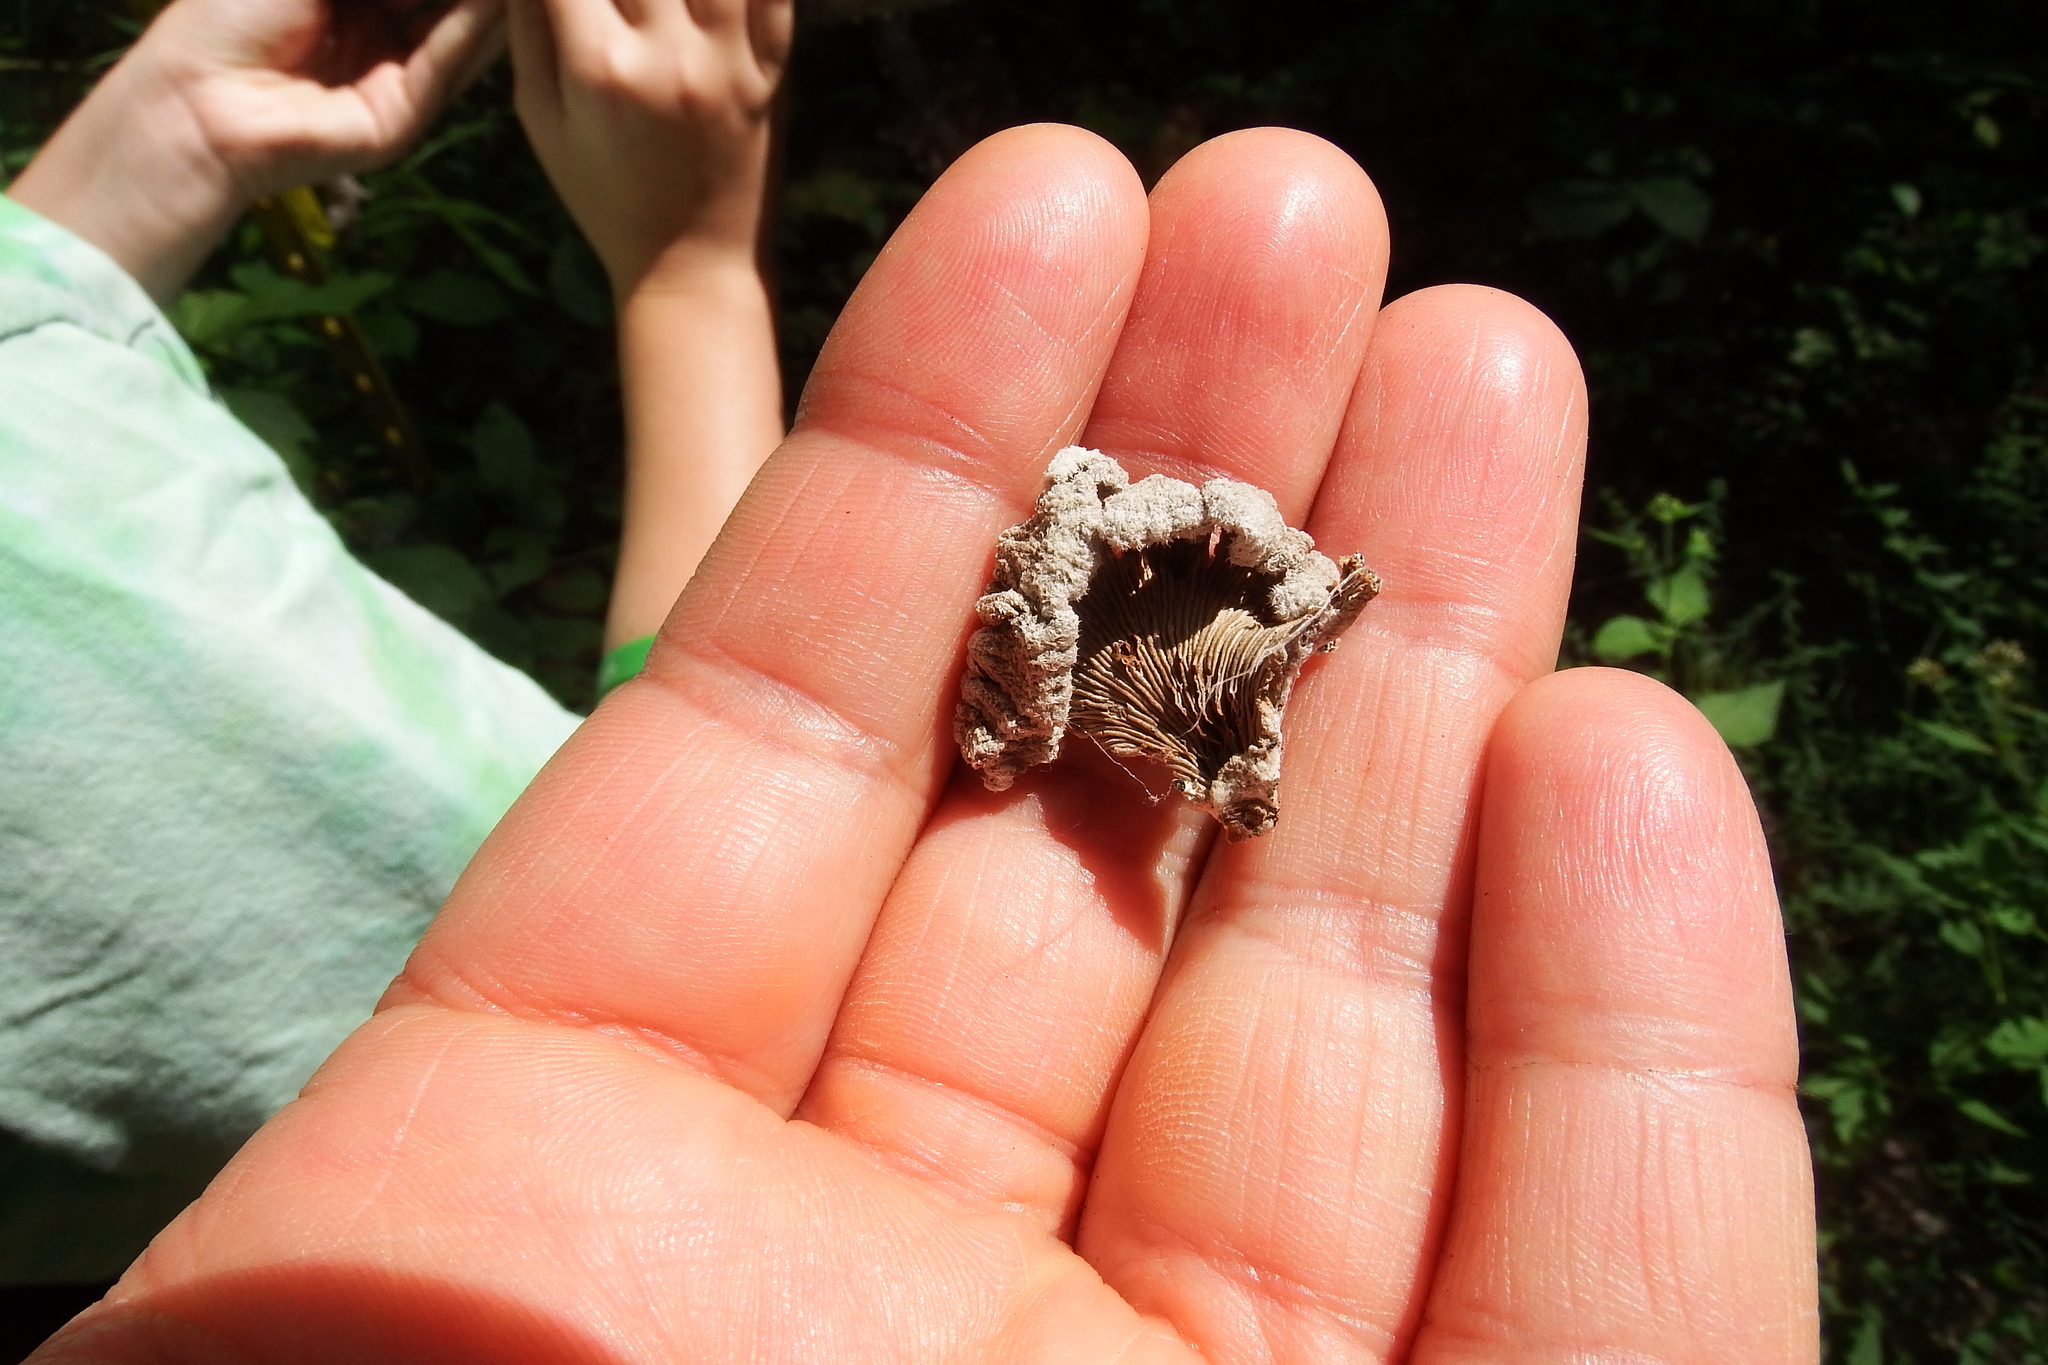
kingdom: Fungi
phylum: Basidiomycota
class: Agaricomycetes
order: Agaricales
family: Schizophyllaceae
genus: Schizophyllum
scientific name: Schizophyllum commune
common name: Common porecrust
